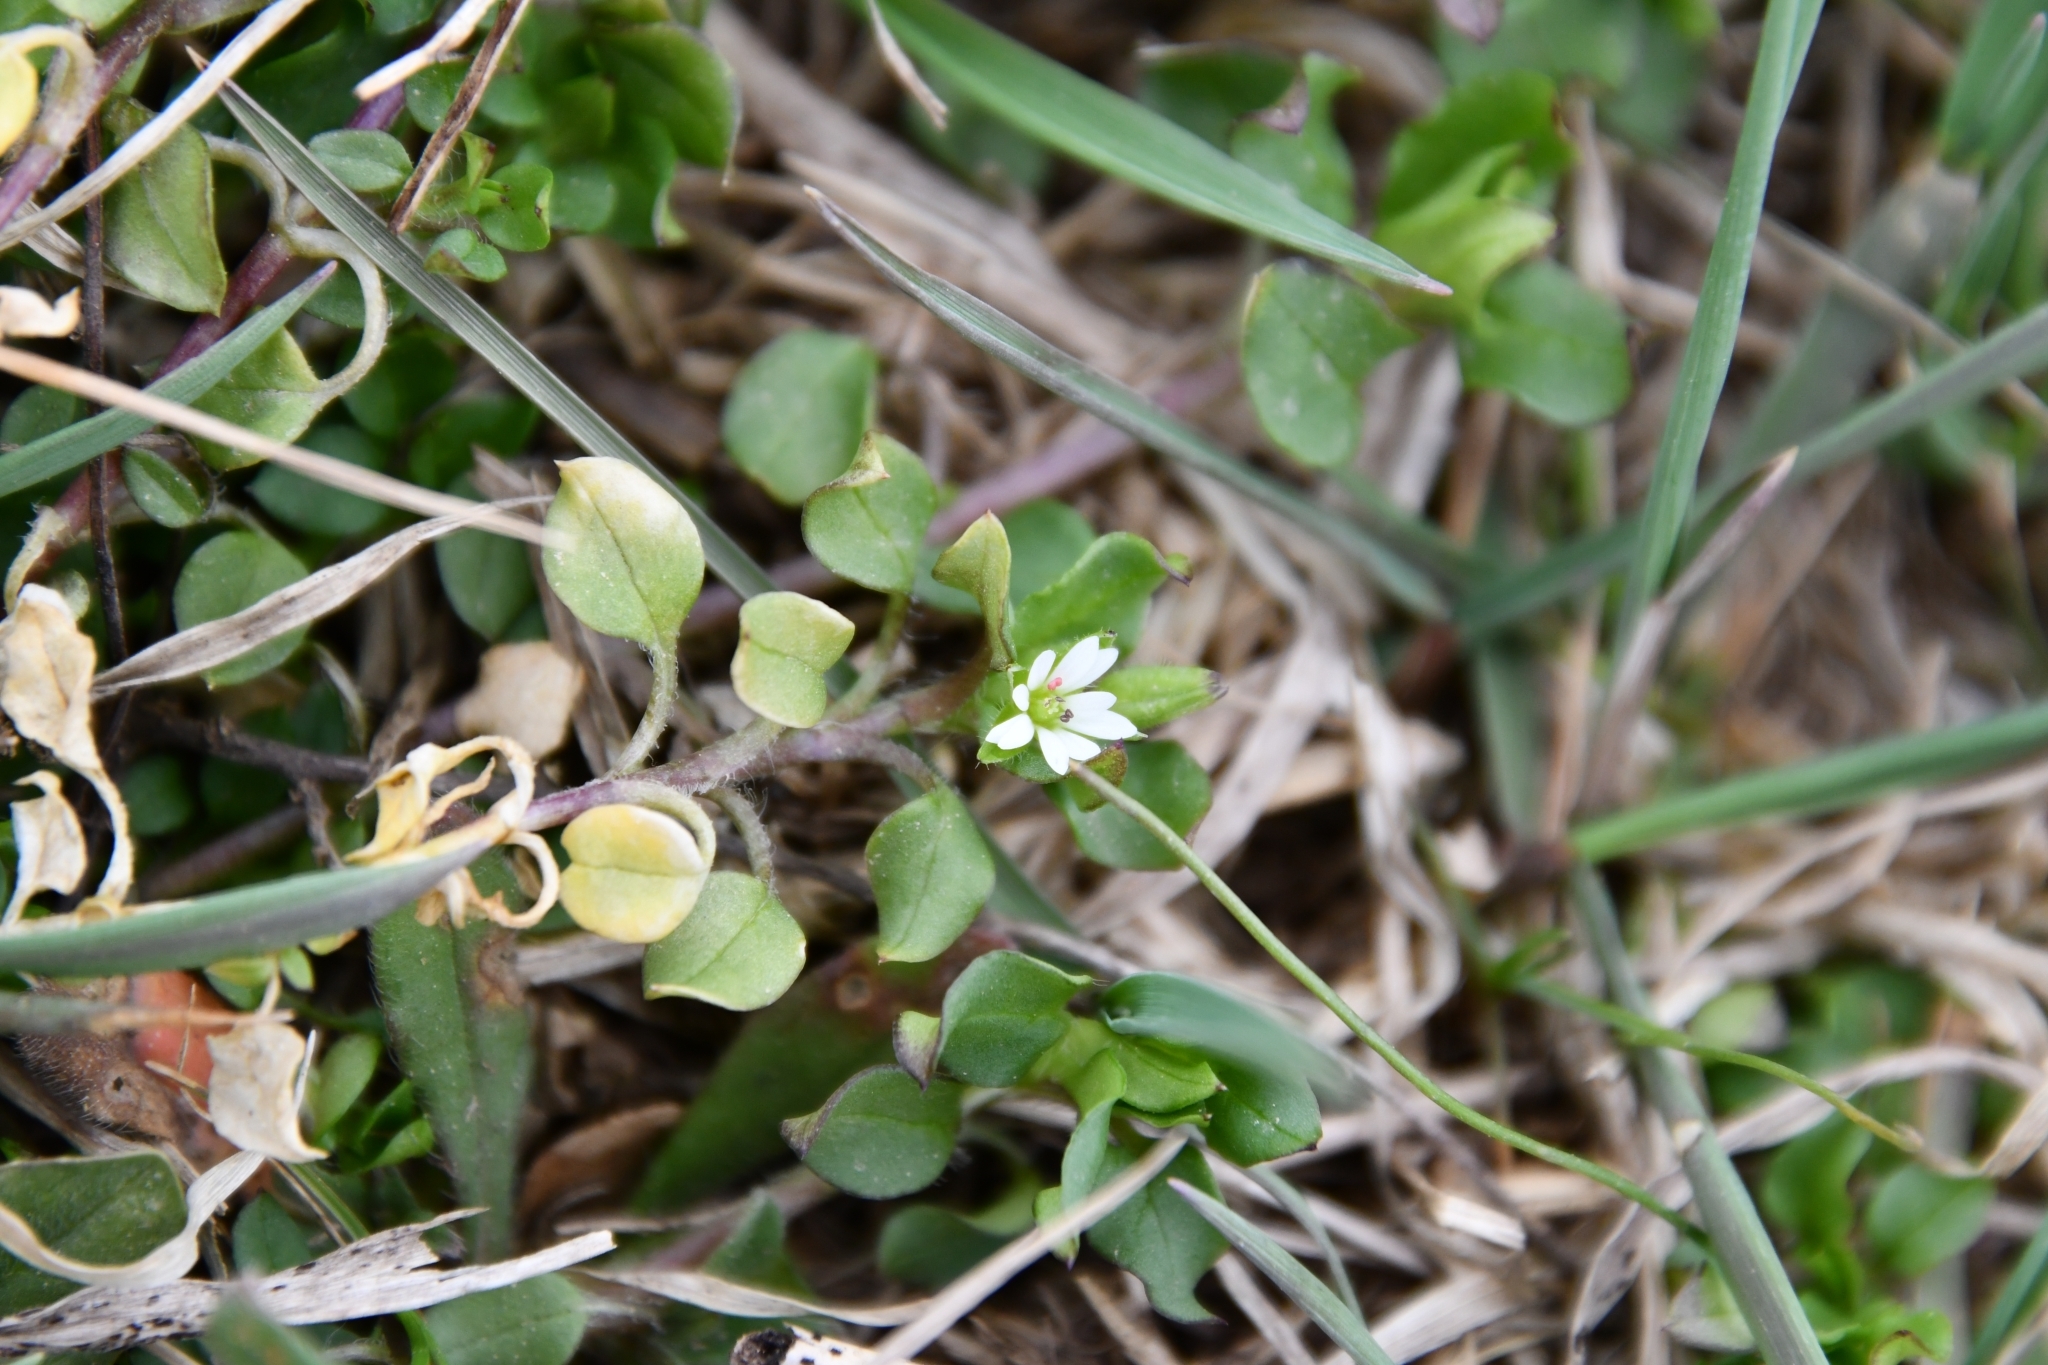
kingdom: Plantae
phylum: Tracheophyta
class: Magnoliopsida
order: Caryophyllales
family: Caryophyllaceae
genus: Stellaria
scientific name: Stellaria media
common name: Common chickweed
